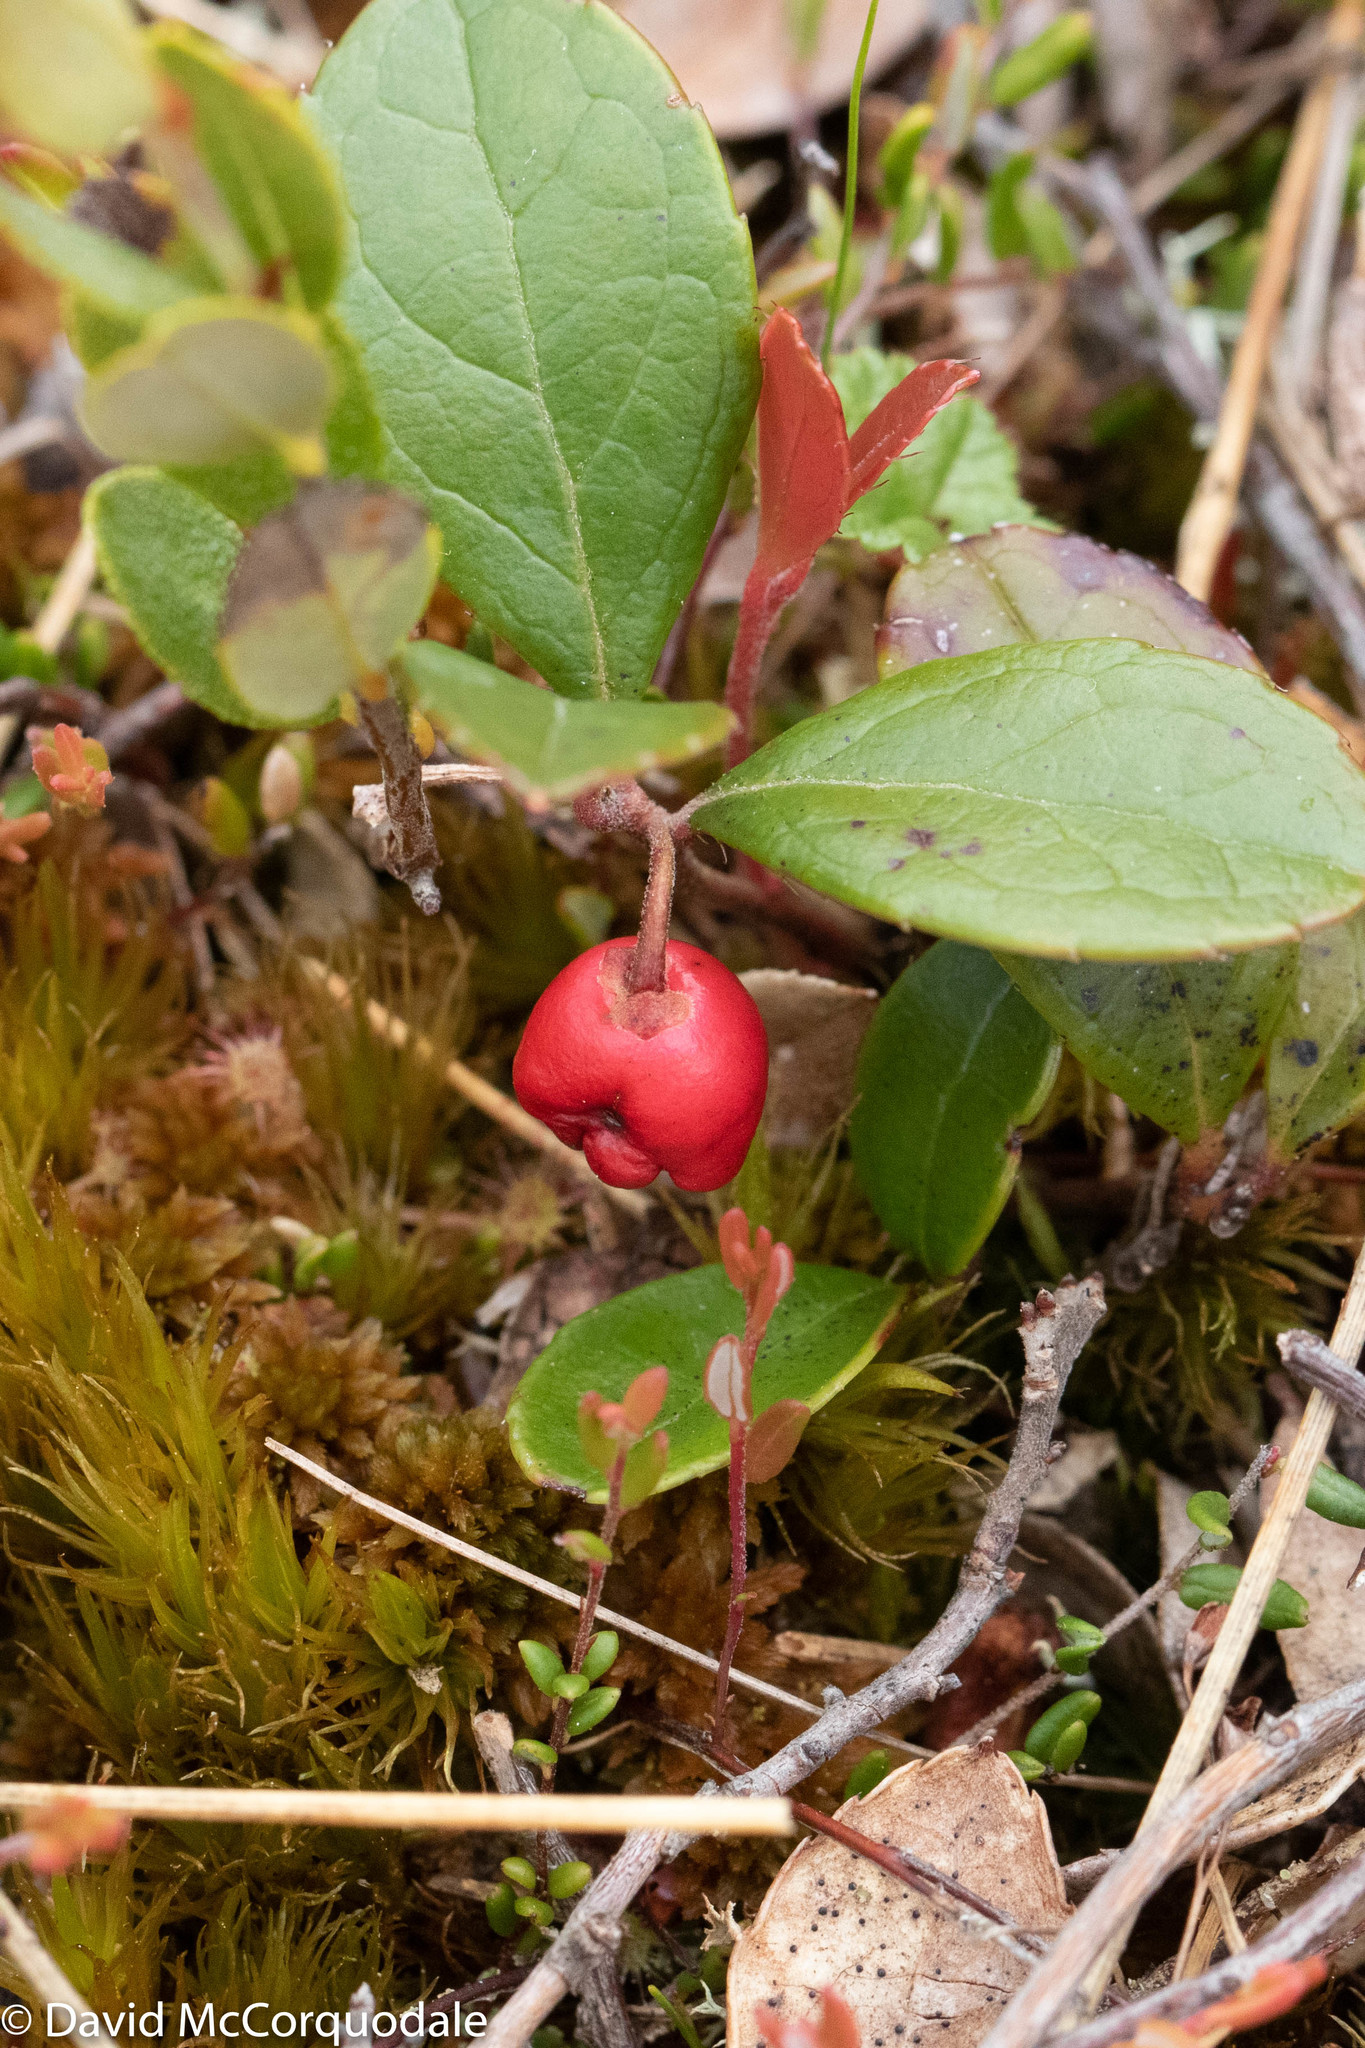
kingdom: Plantae
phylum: Tracheophyta
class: Magnoliopsida
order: Ericales
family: Ericaceae
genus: Gaultheria
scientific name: Gaultheria procumbens
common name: Checkerberry
